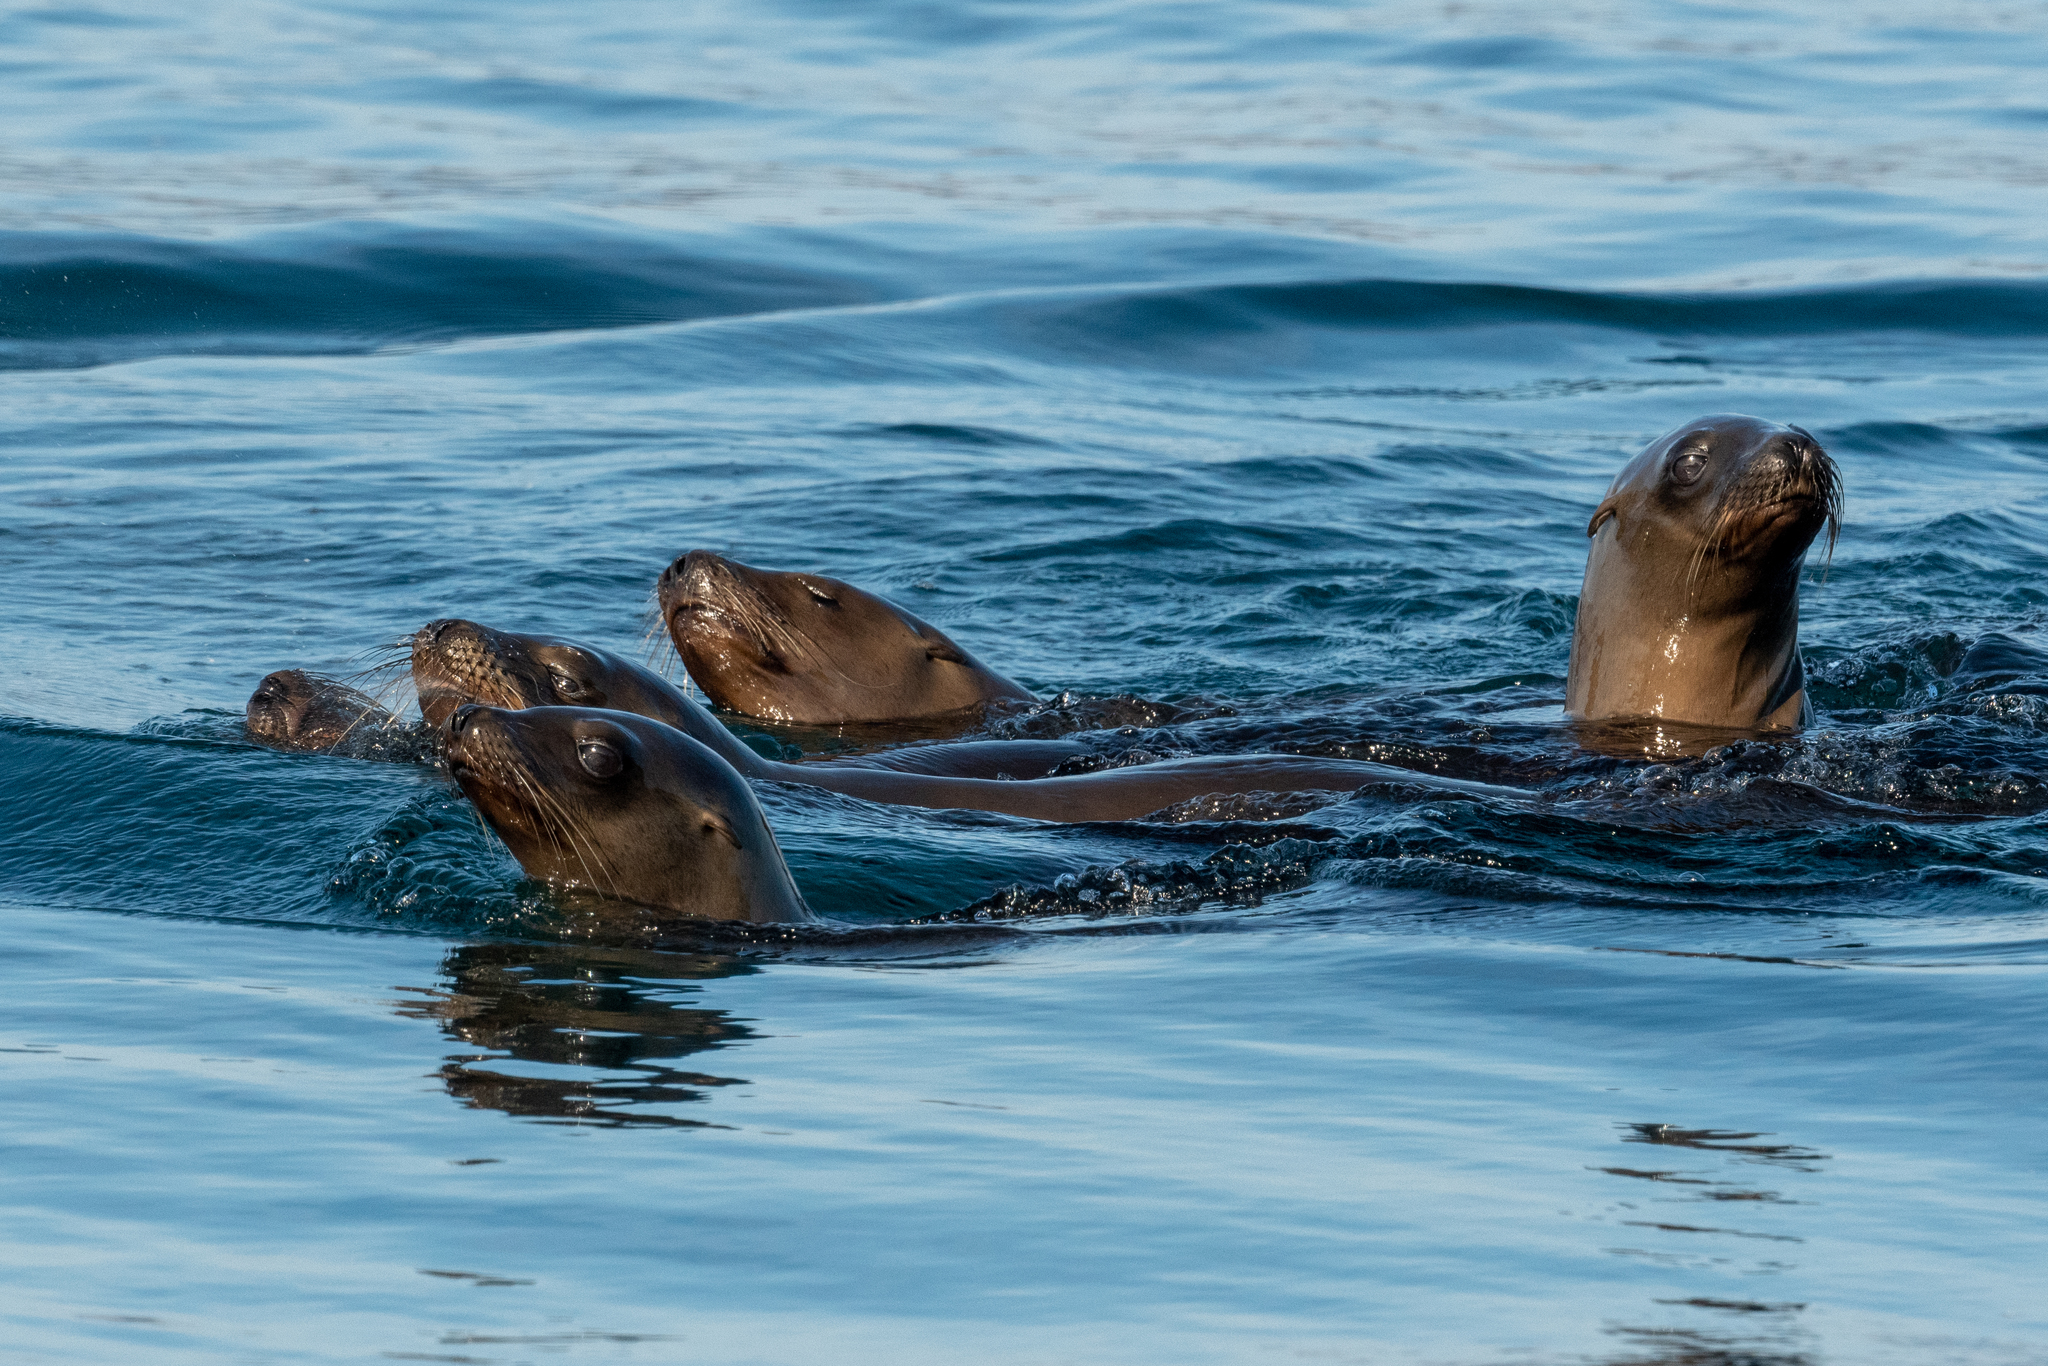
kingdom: Animalia
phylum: Chordata
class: Mammalia
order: Carnivora
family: Otariidae
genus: Zalophus
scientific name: Zalophus californianus
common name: California sea lion
